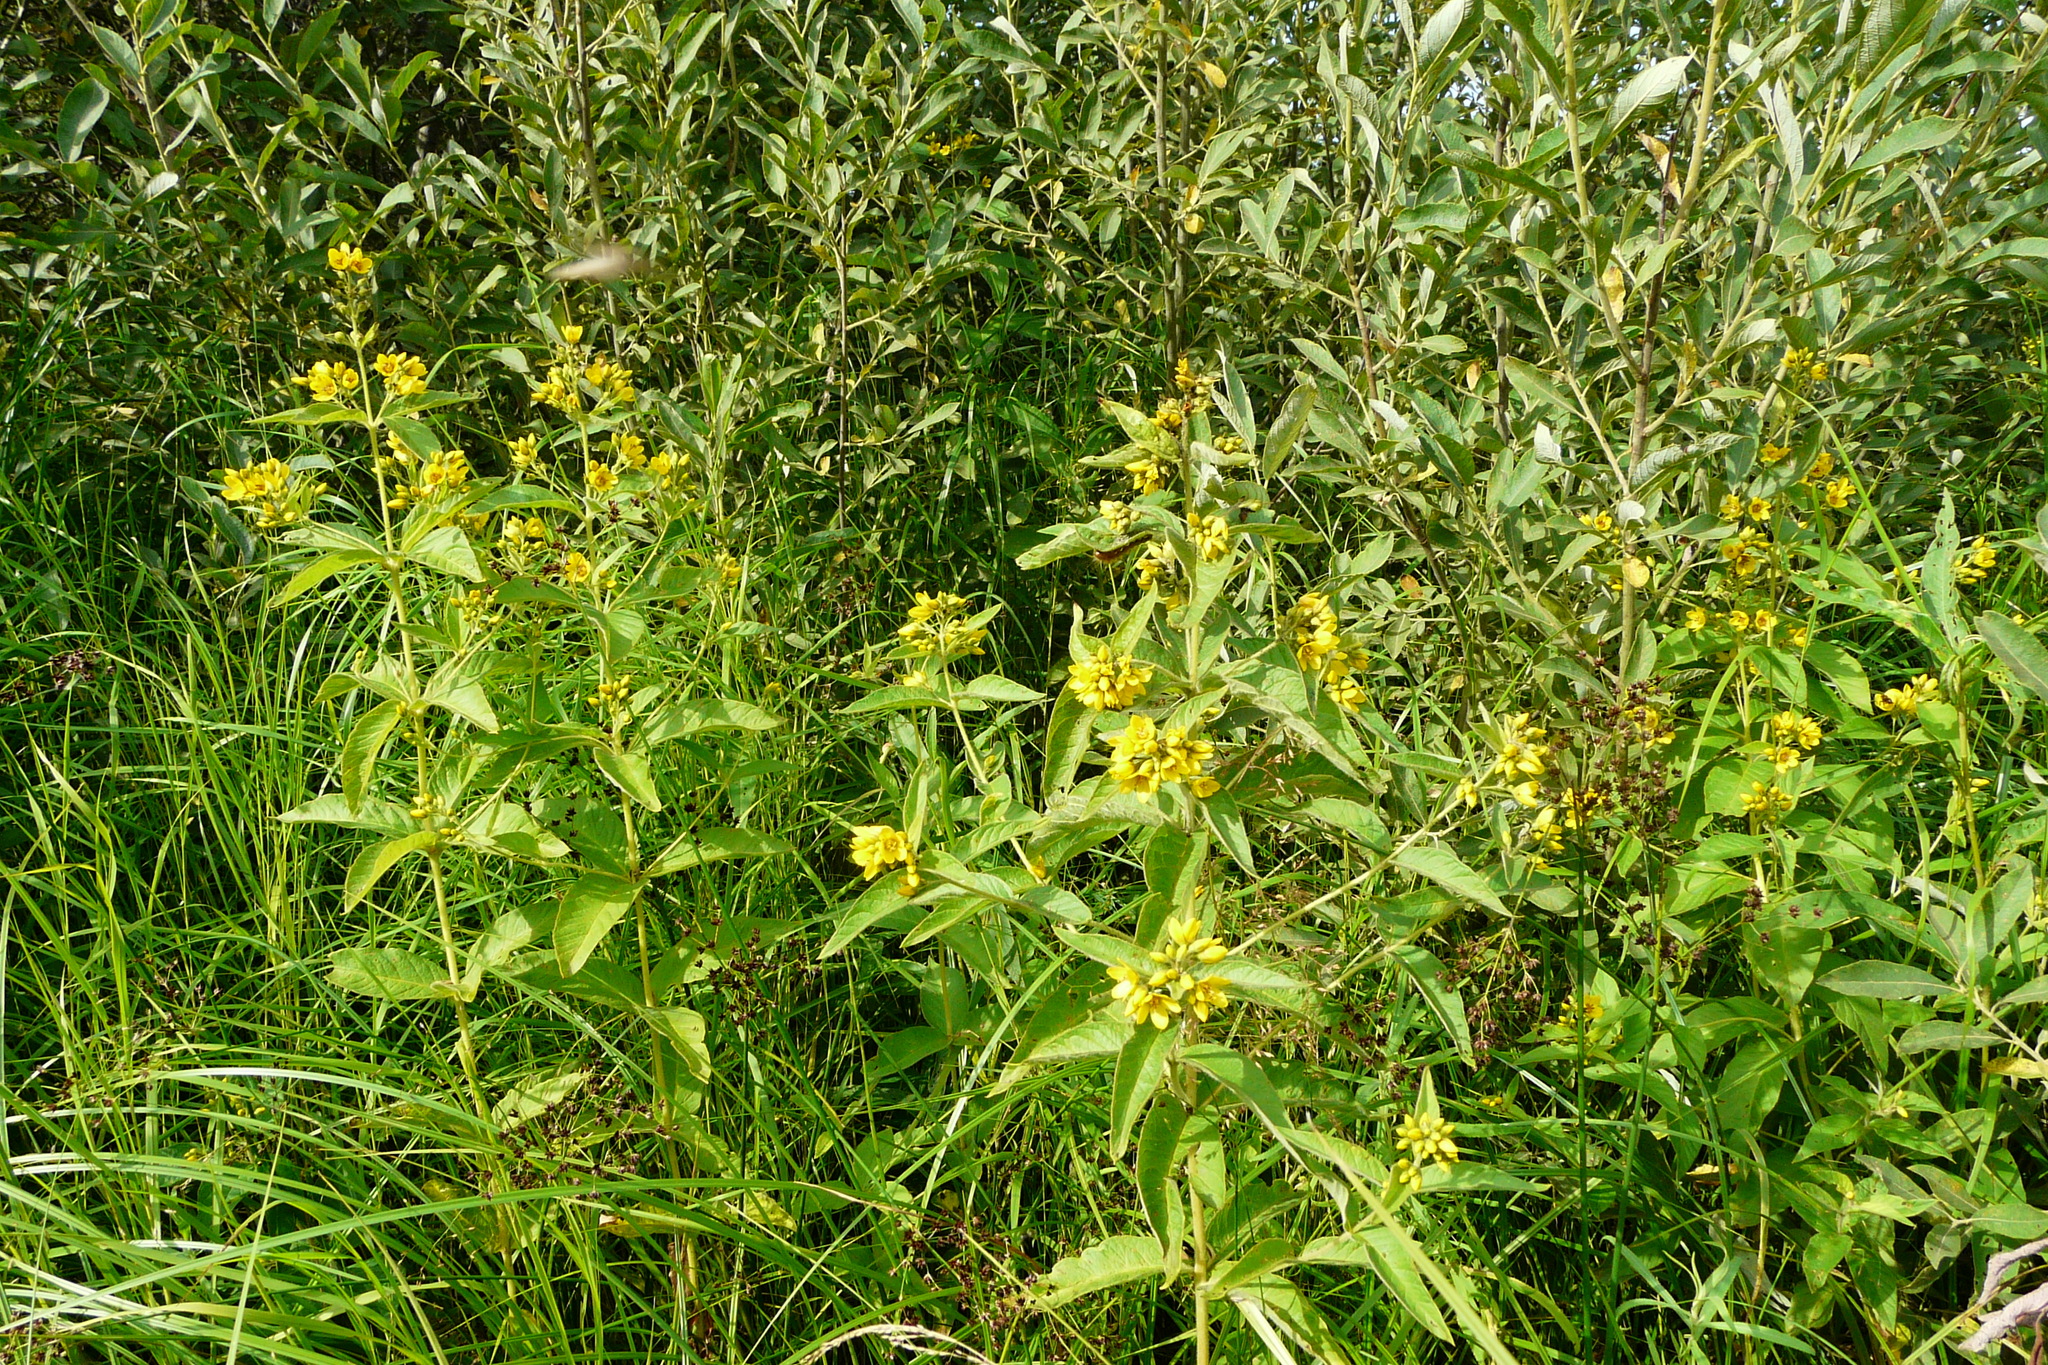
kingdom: Plantae
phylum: Tracheophyta
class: Magnoliopsida
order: Ericales
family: Primulaceae
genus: Lysimachia
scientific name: Lysimachia vulgaris
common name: Yellow loosestrife
